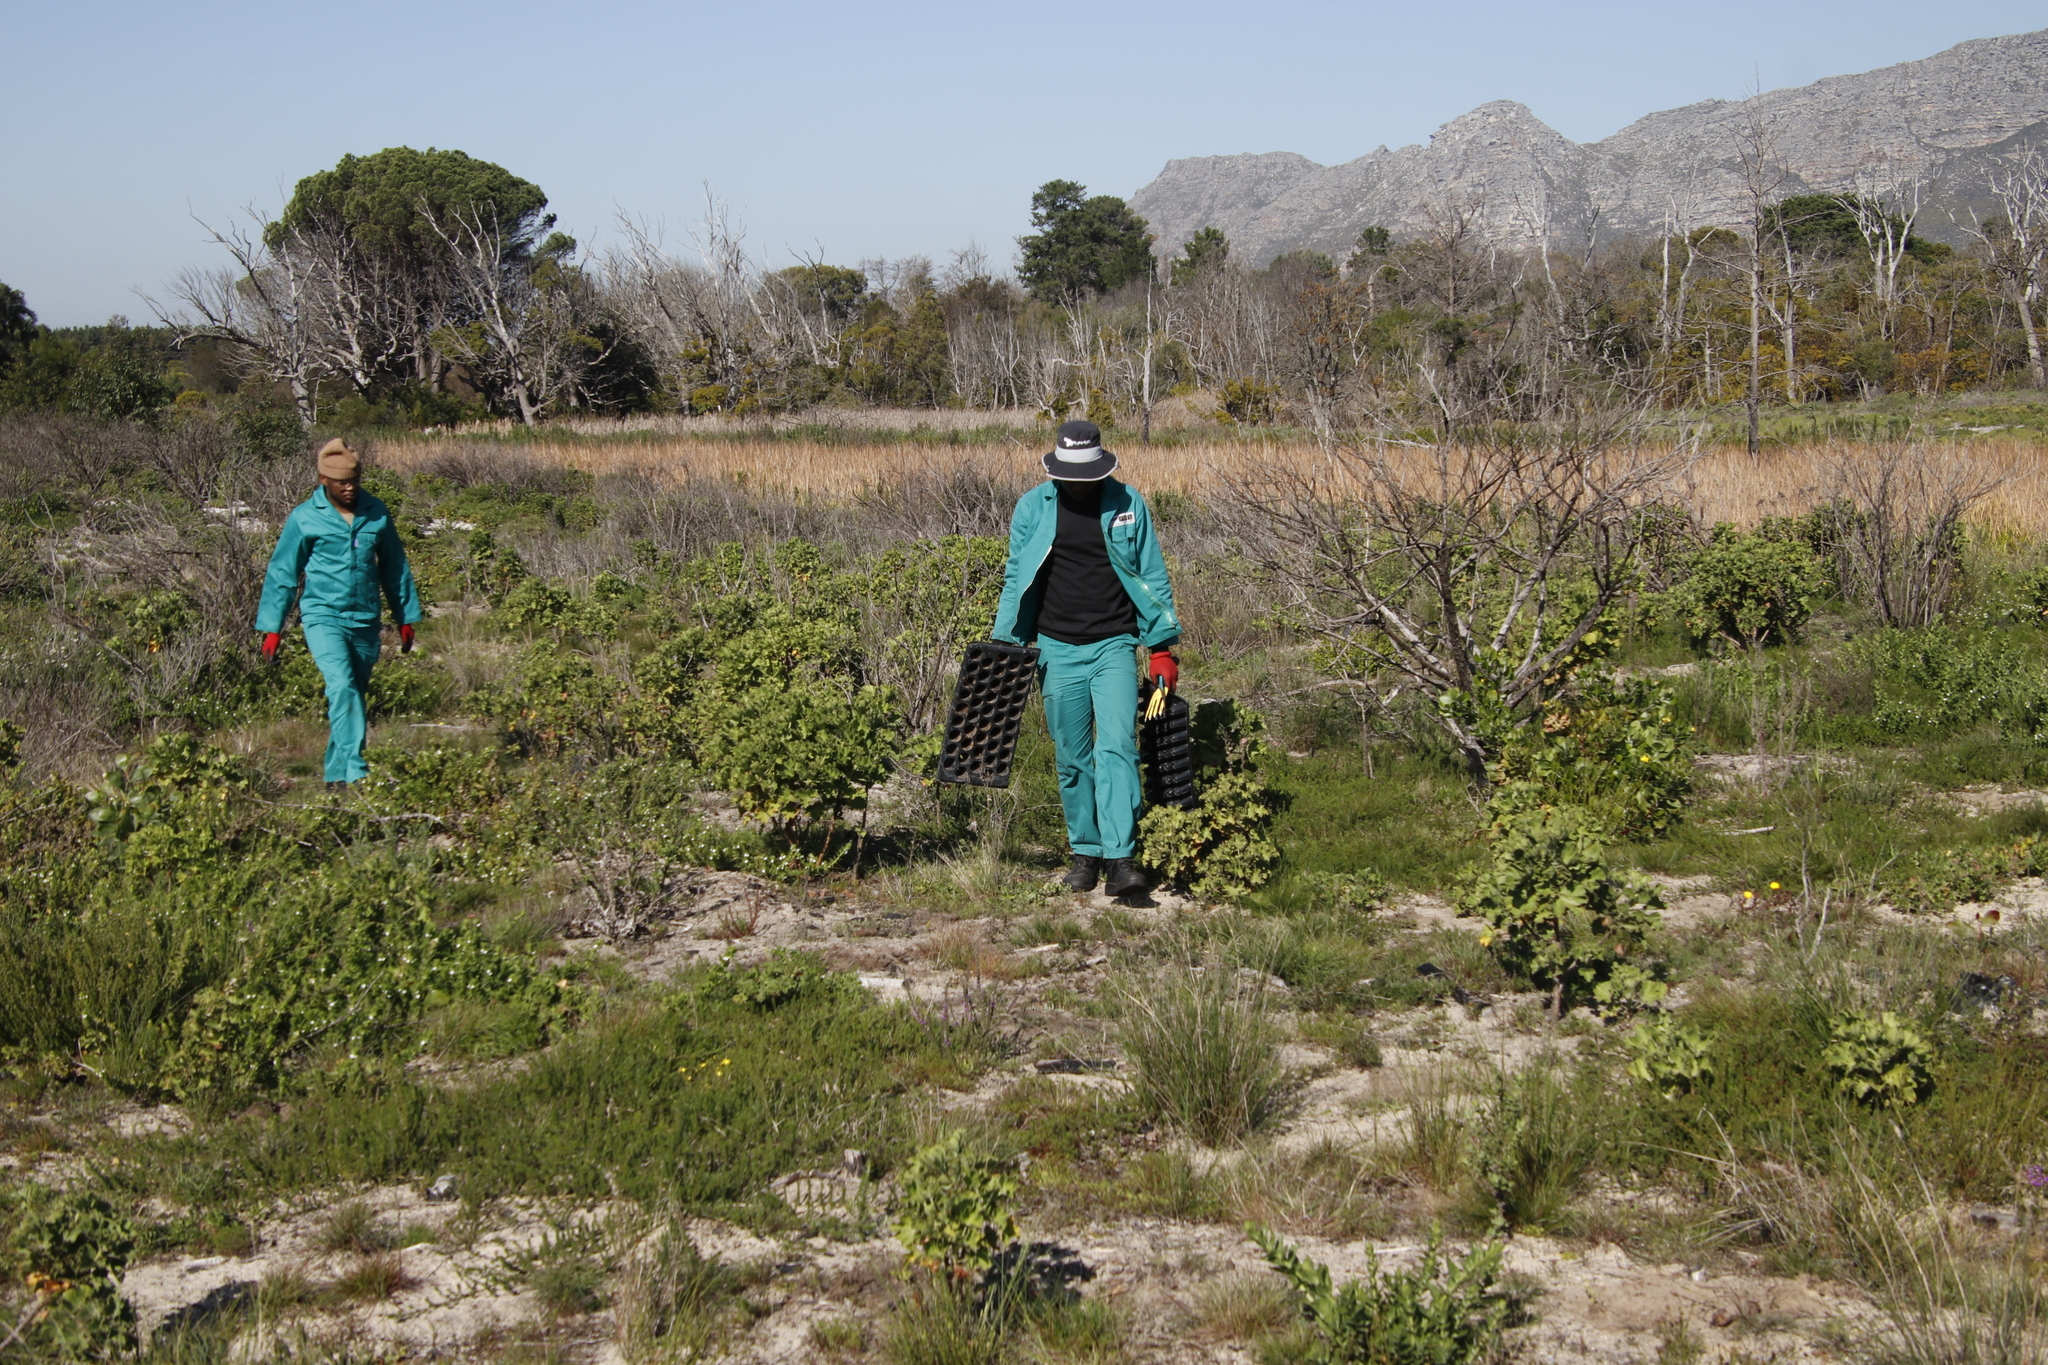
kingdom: Plantae
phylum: Tracheophyta
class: Magnoliopsida
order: Geraniales
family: Geraniaceae
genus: Pelargonium
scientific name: Pelargonium cucullatum
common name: Tree pelargonium
